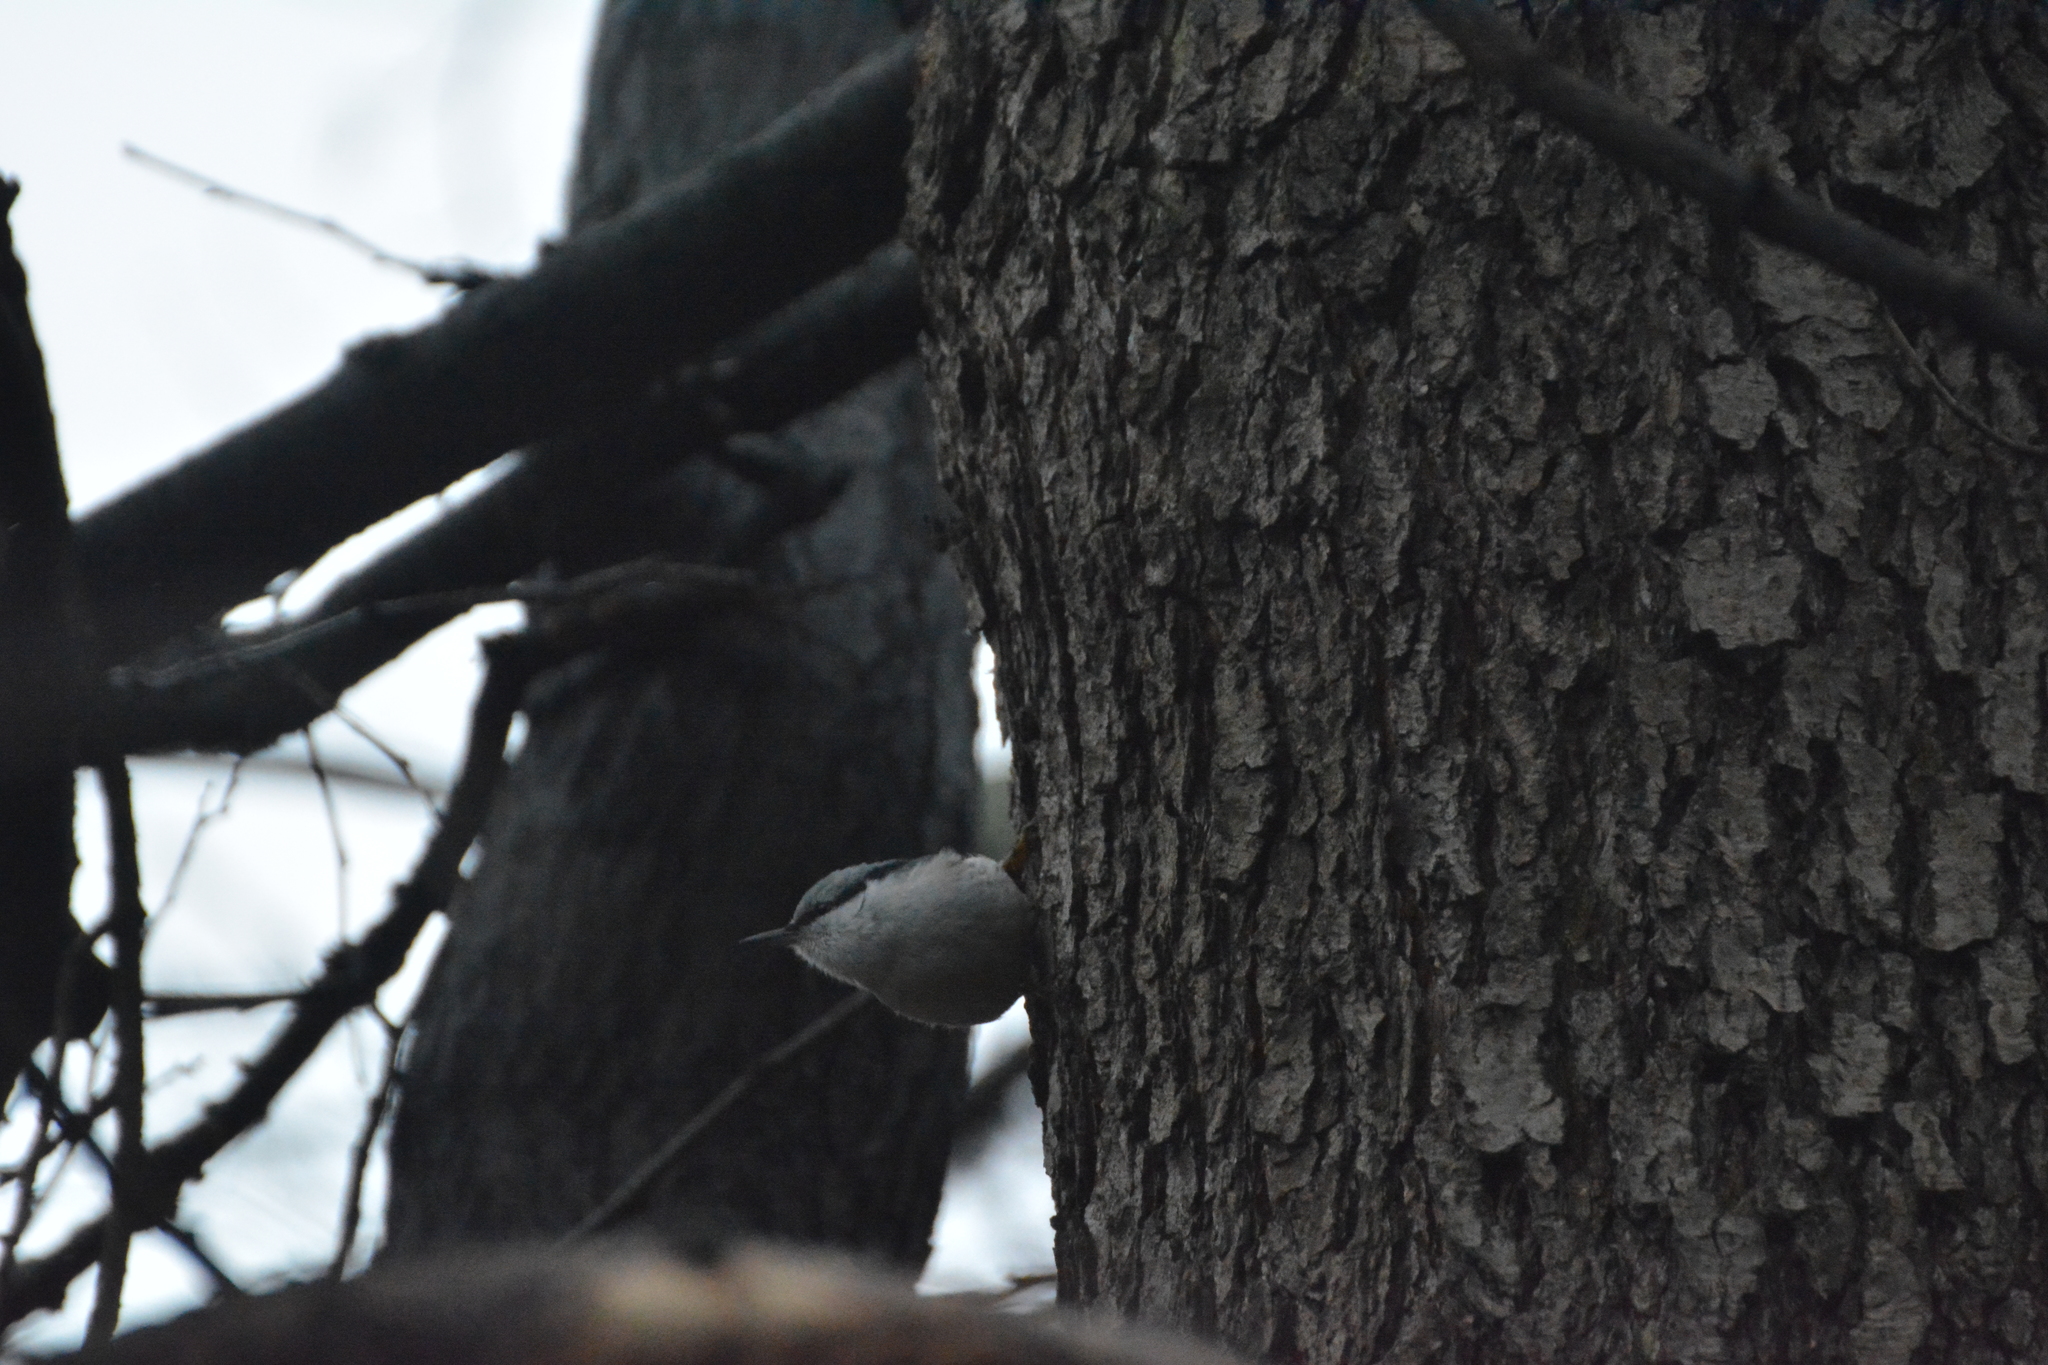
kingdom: Animalia
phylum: Chordata
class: Aves
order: Passeriformes
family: Sittidae
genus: Sitta
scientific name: Sitta europaea
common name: Eurasian nuthatch
